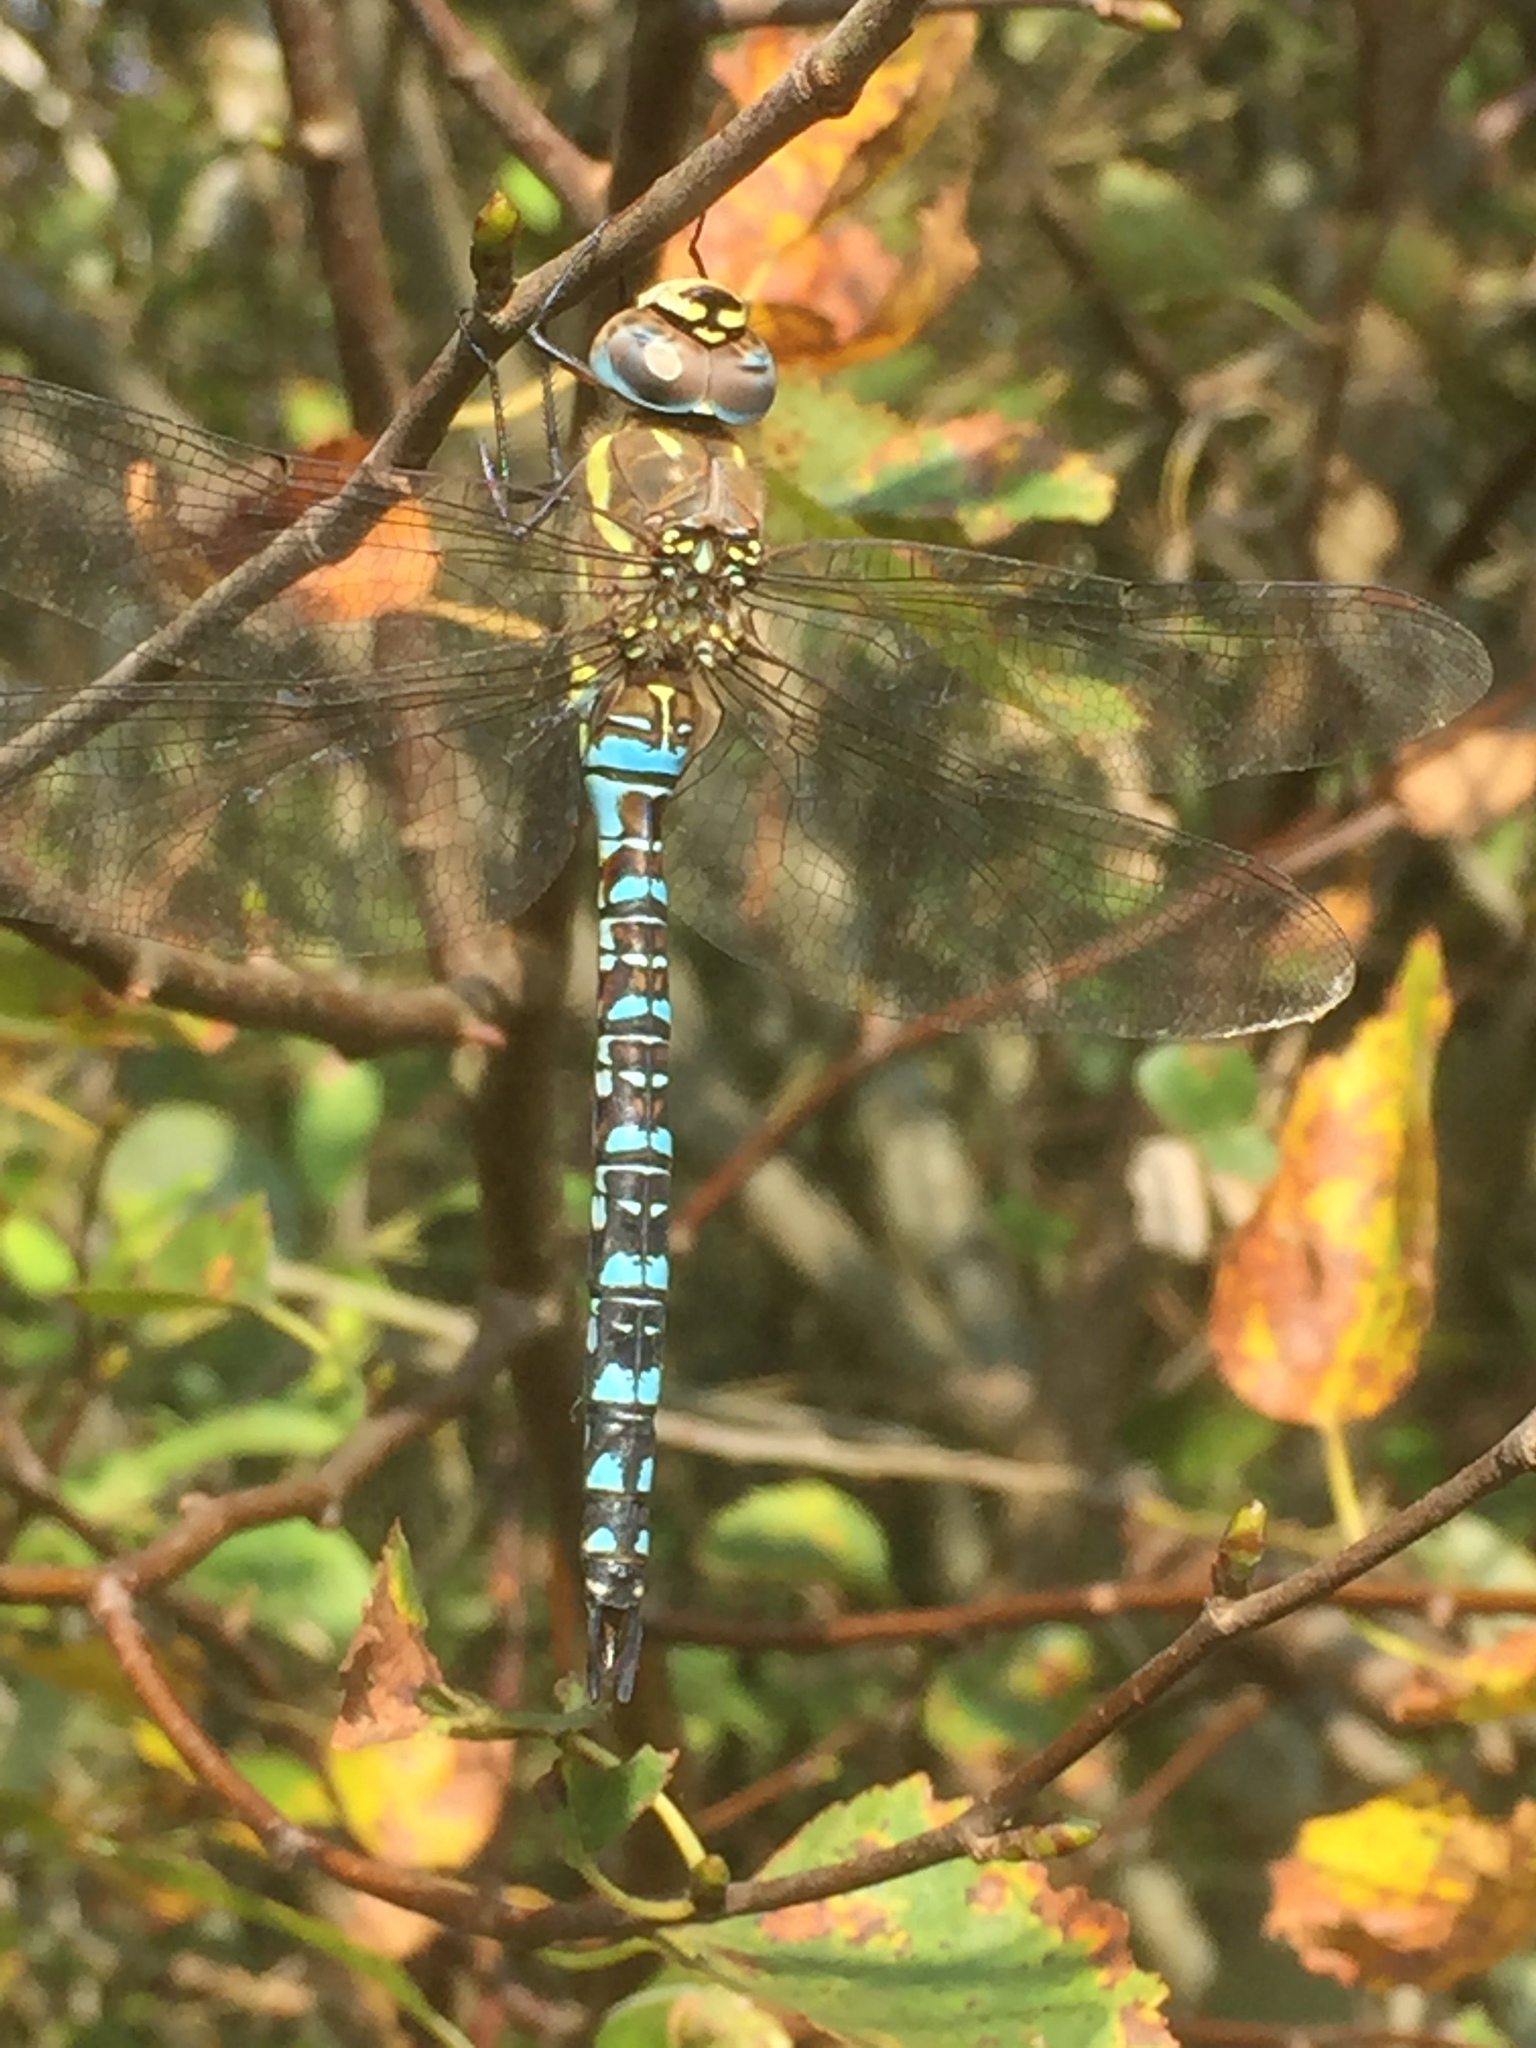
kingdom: Animalia
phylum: Arthropoda
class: Insecta
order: Odonata
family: Aeshnidae
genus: Aeshna
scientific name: Aeshna mixta
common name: Migrant hawker
